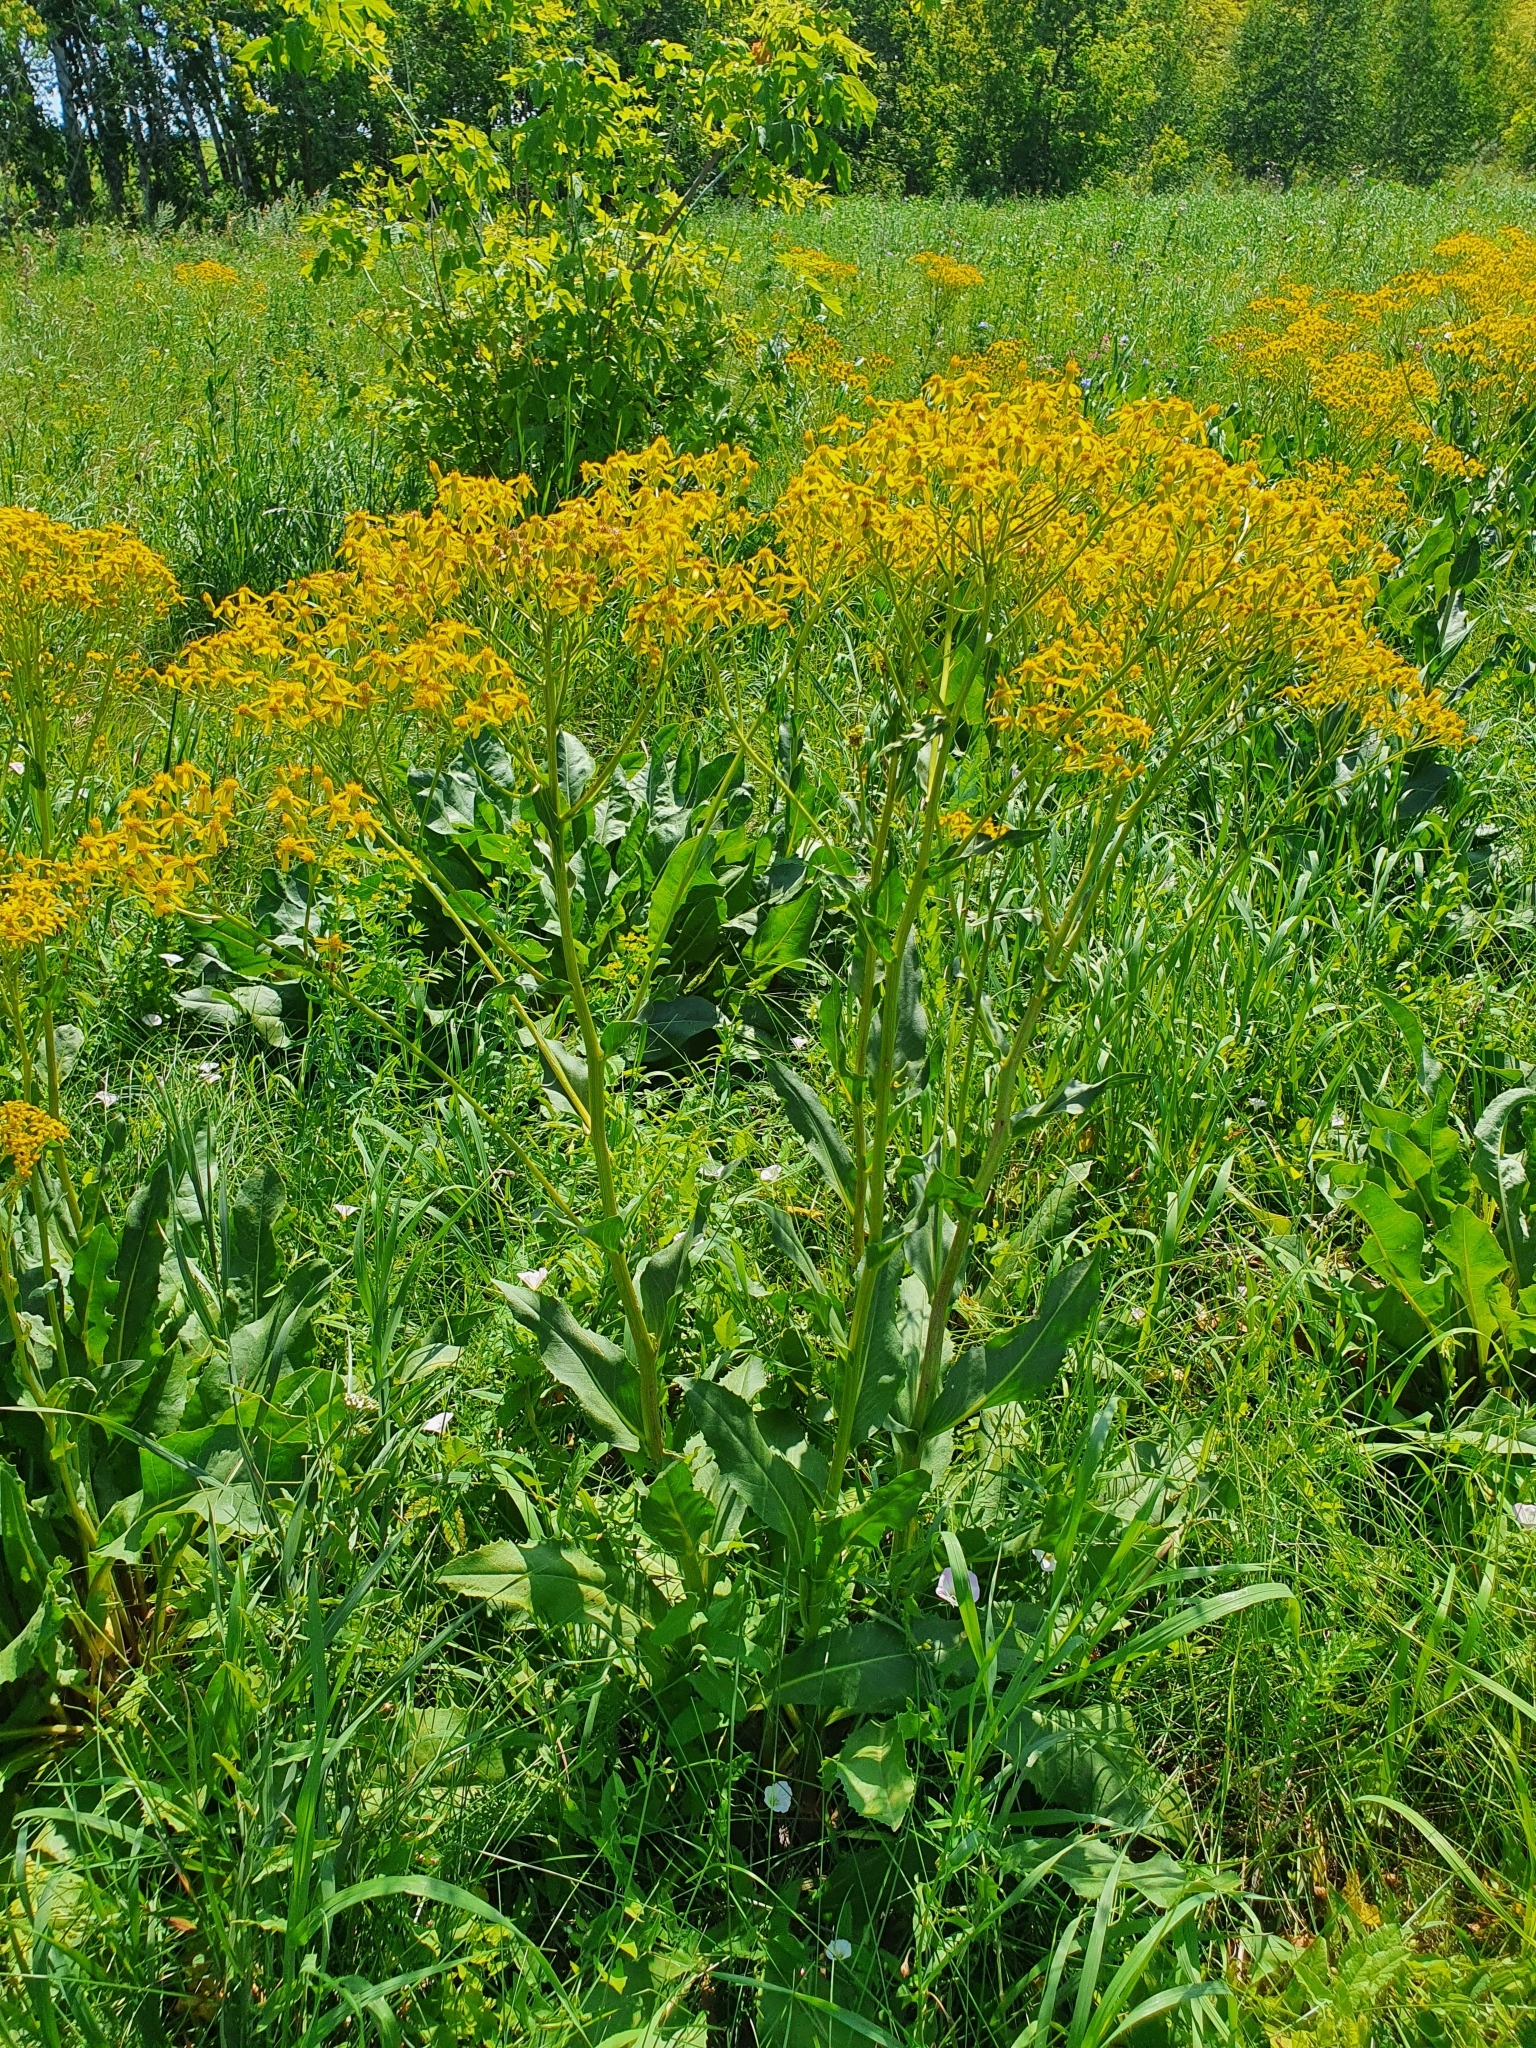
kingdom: Plantae
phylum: Tracheophyta
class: Magnoliopsida
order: Asterales
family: Asteraceae
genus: Senecio
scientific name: Senecio doria
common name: Golden ragwort
